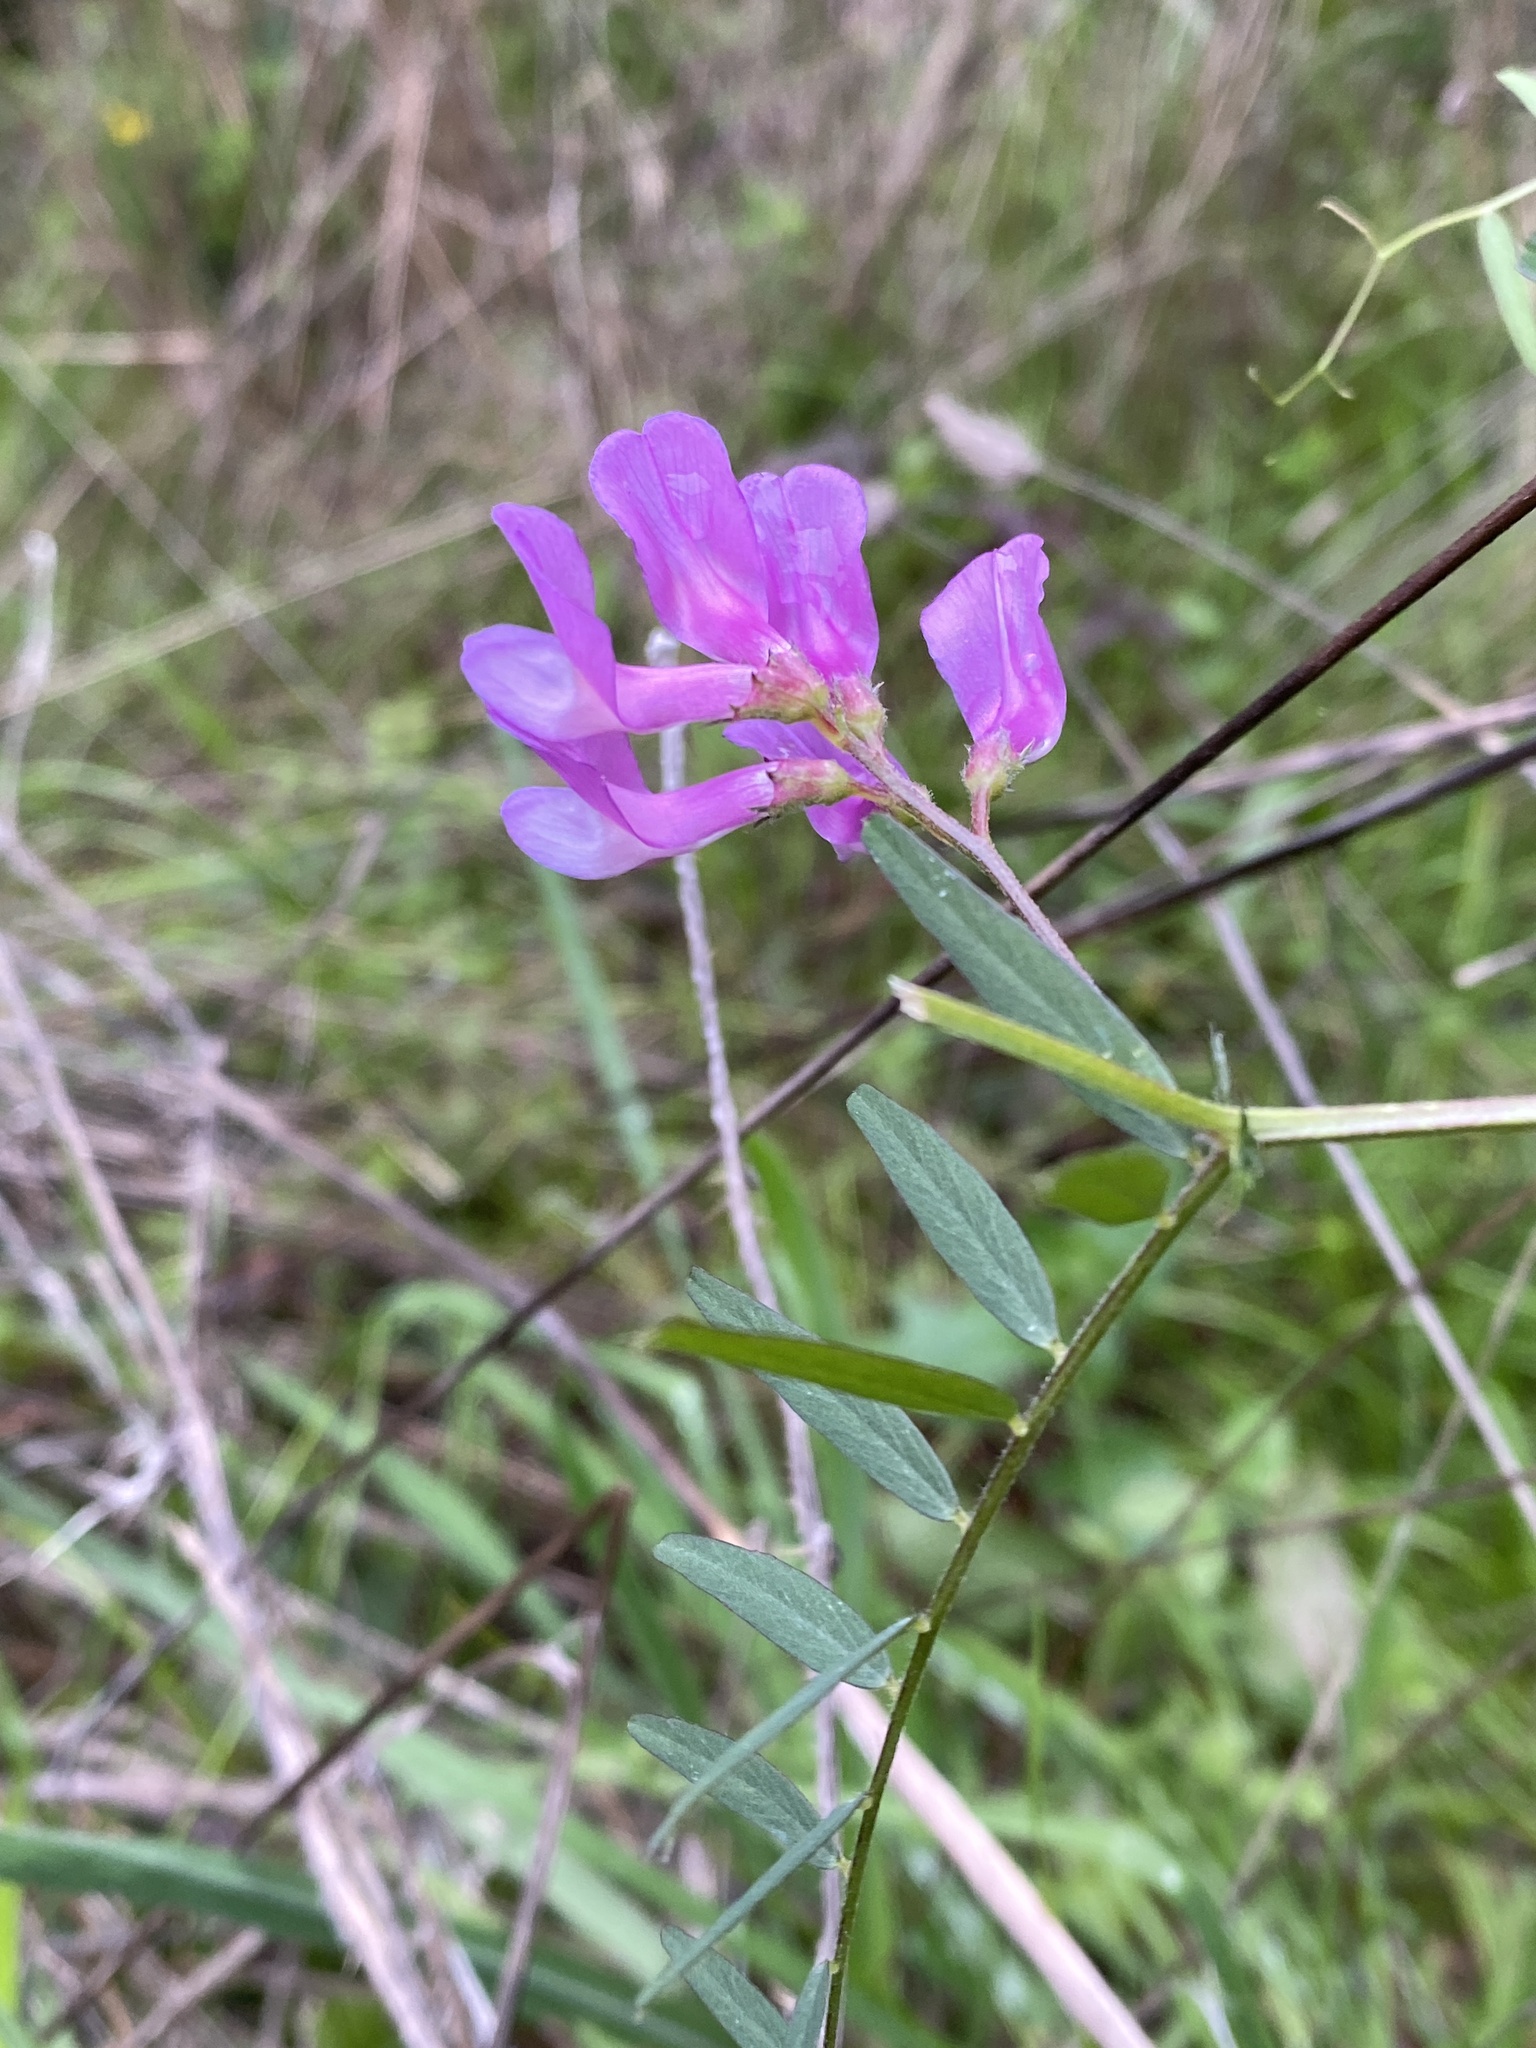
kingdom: Plantae
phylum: Tracheophyta
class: Magnoliopsida
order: Fabales
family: Fabaceae
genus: Vicia
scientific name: Vicia americana
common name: American vetch
